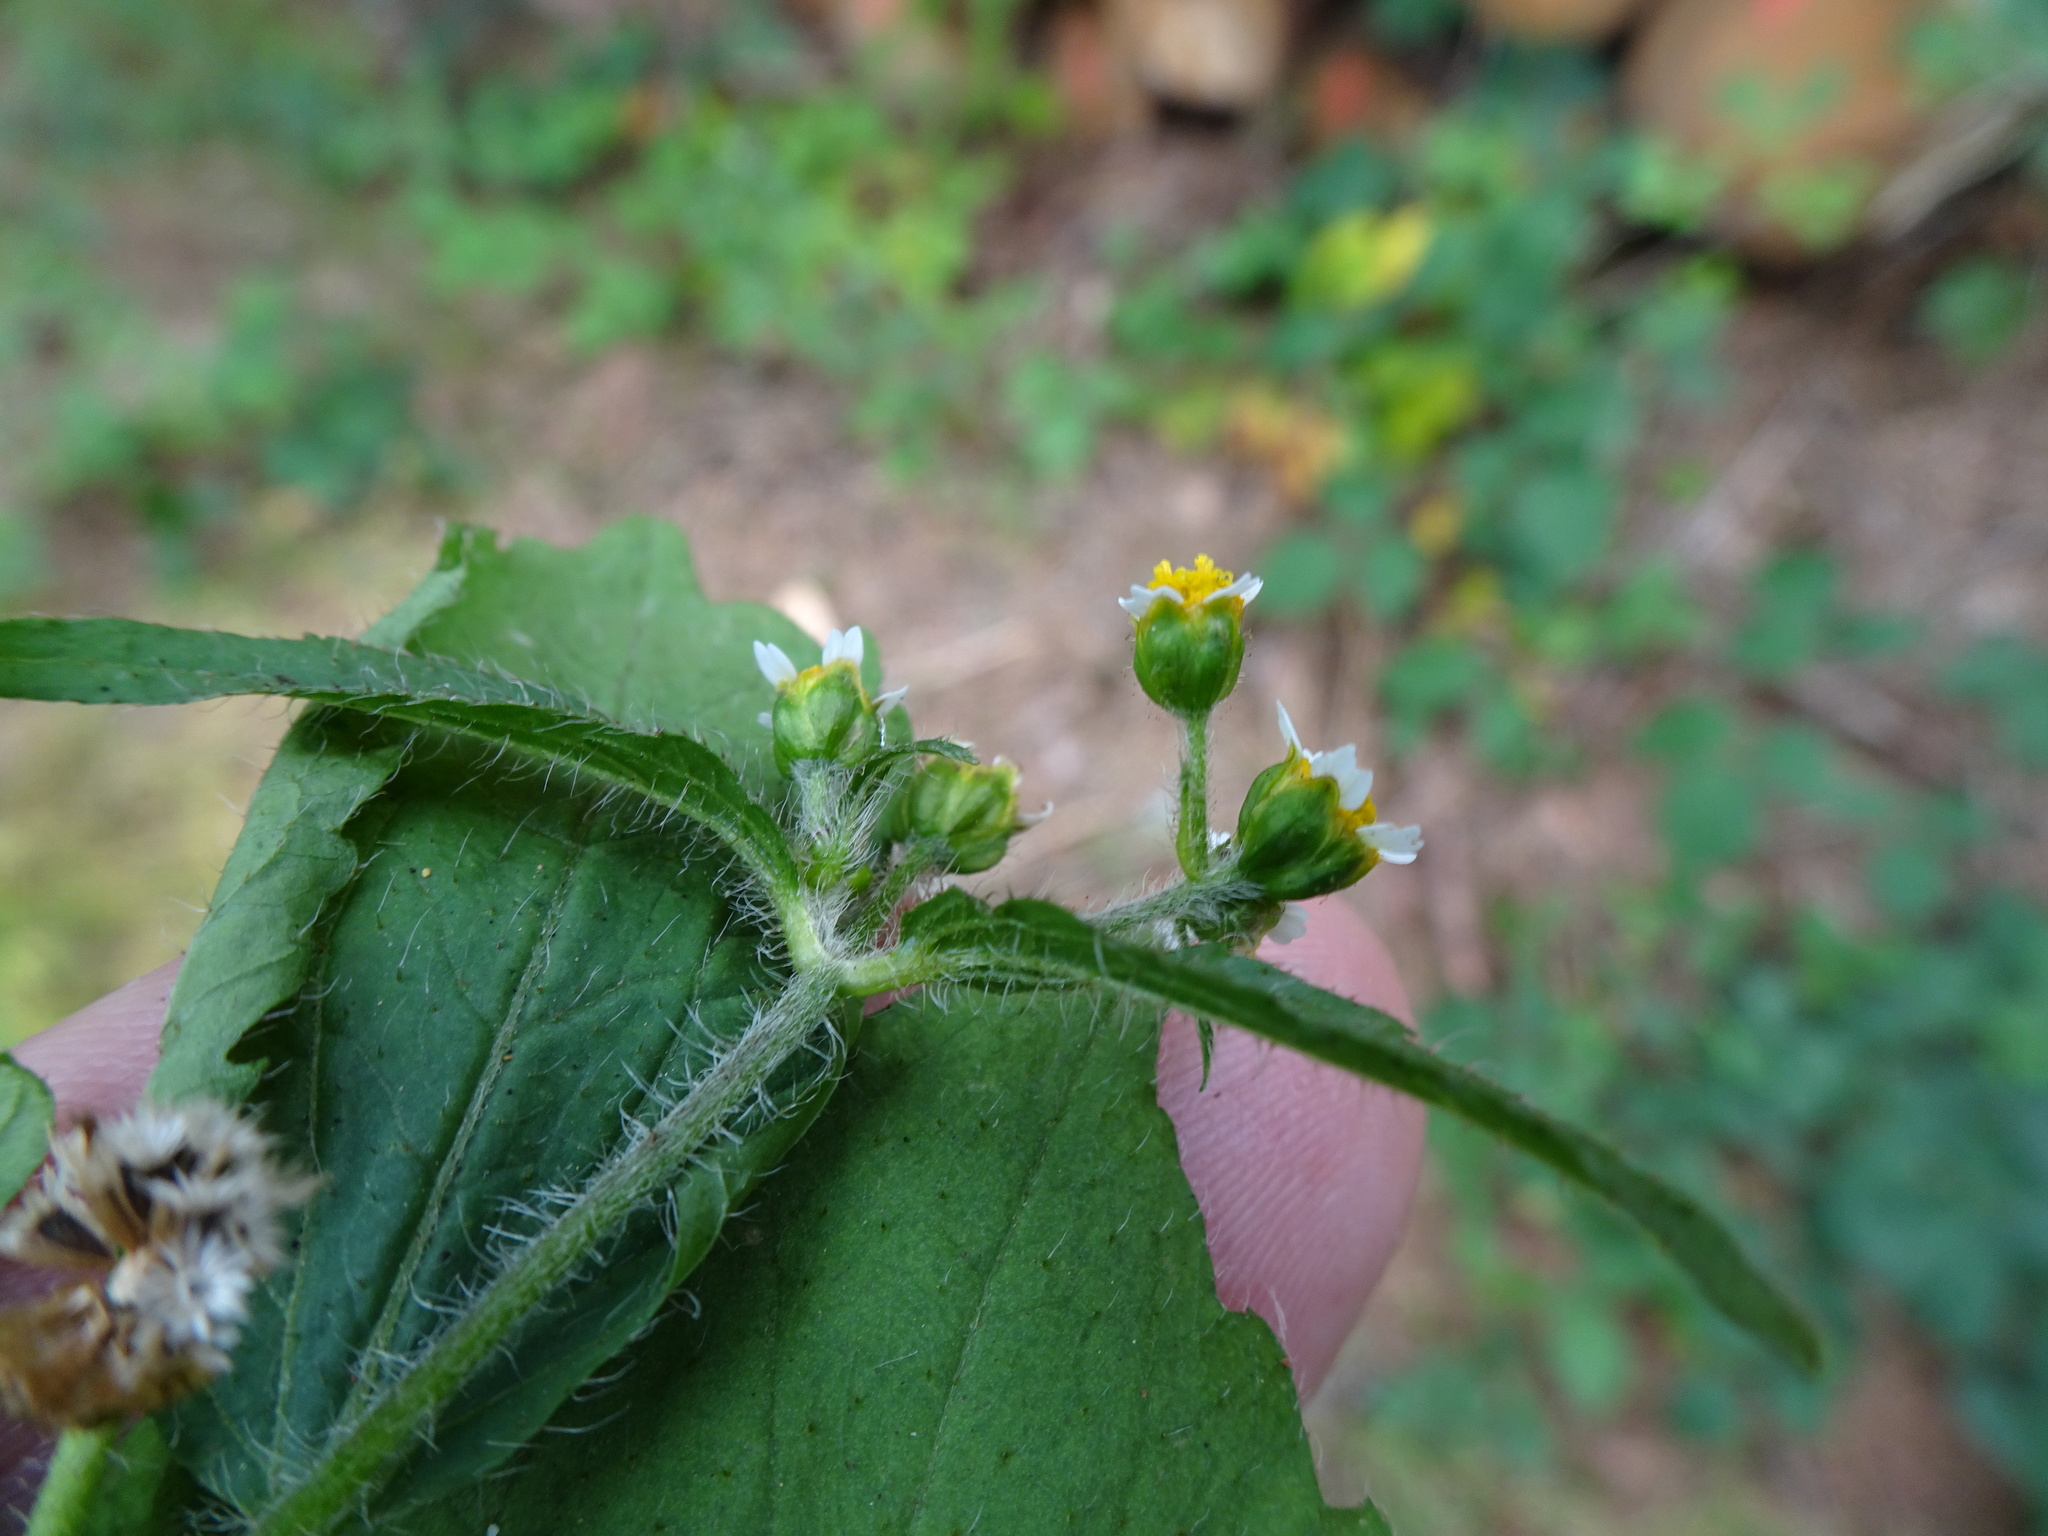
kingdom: Plantae
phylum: Tracheophyta
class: Magnoliopsida
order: Asterales
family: Asteraceae
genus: Galinsoga
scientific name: Galinsoga quadriradiata
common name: Shaggy soldier
